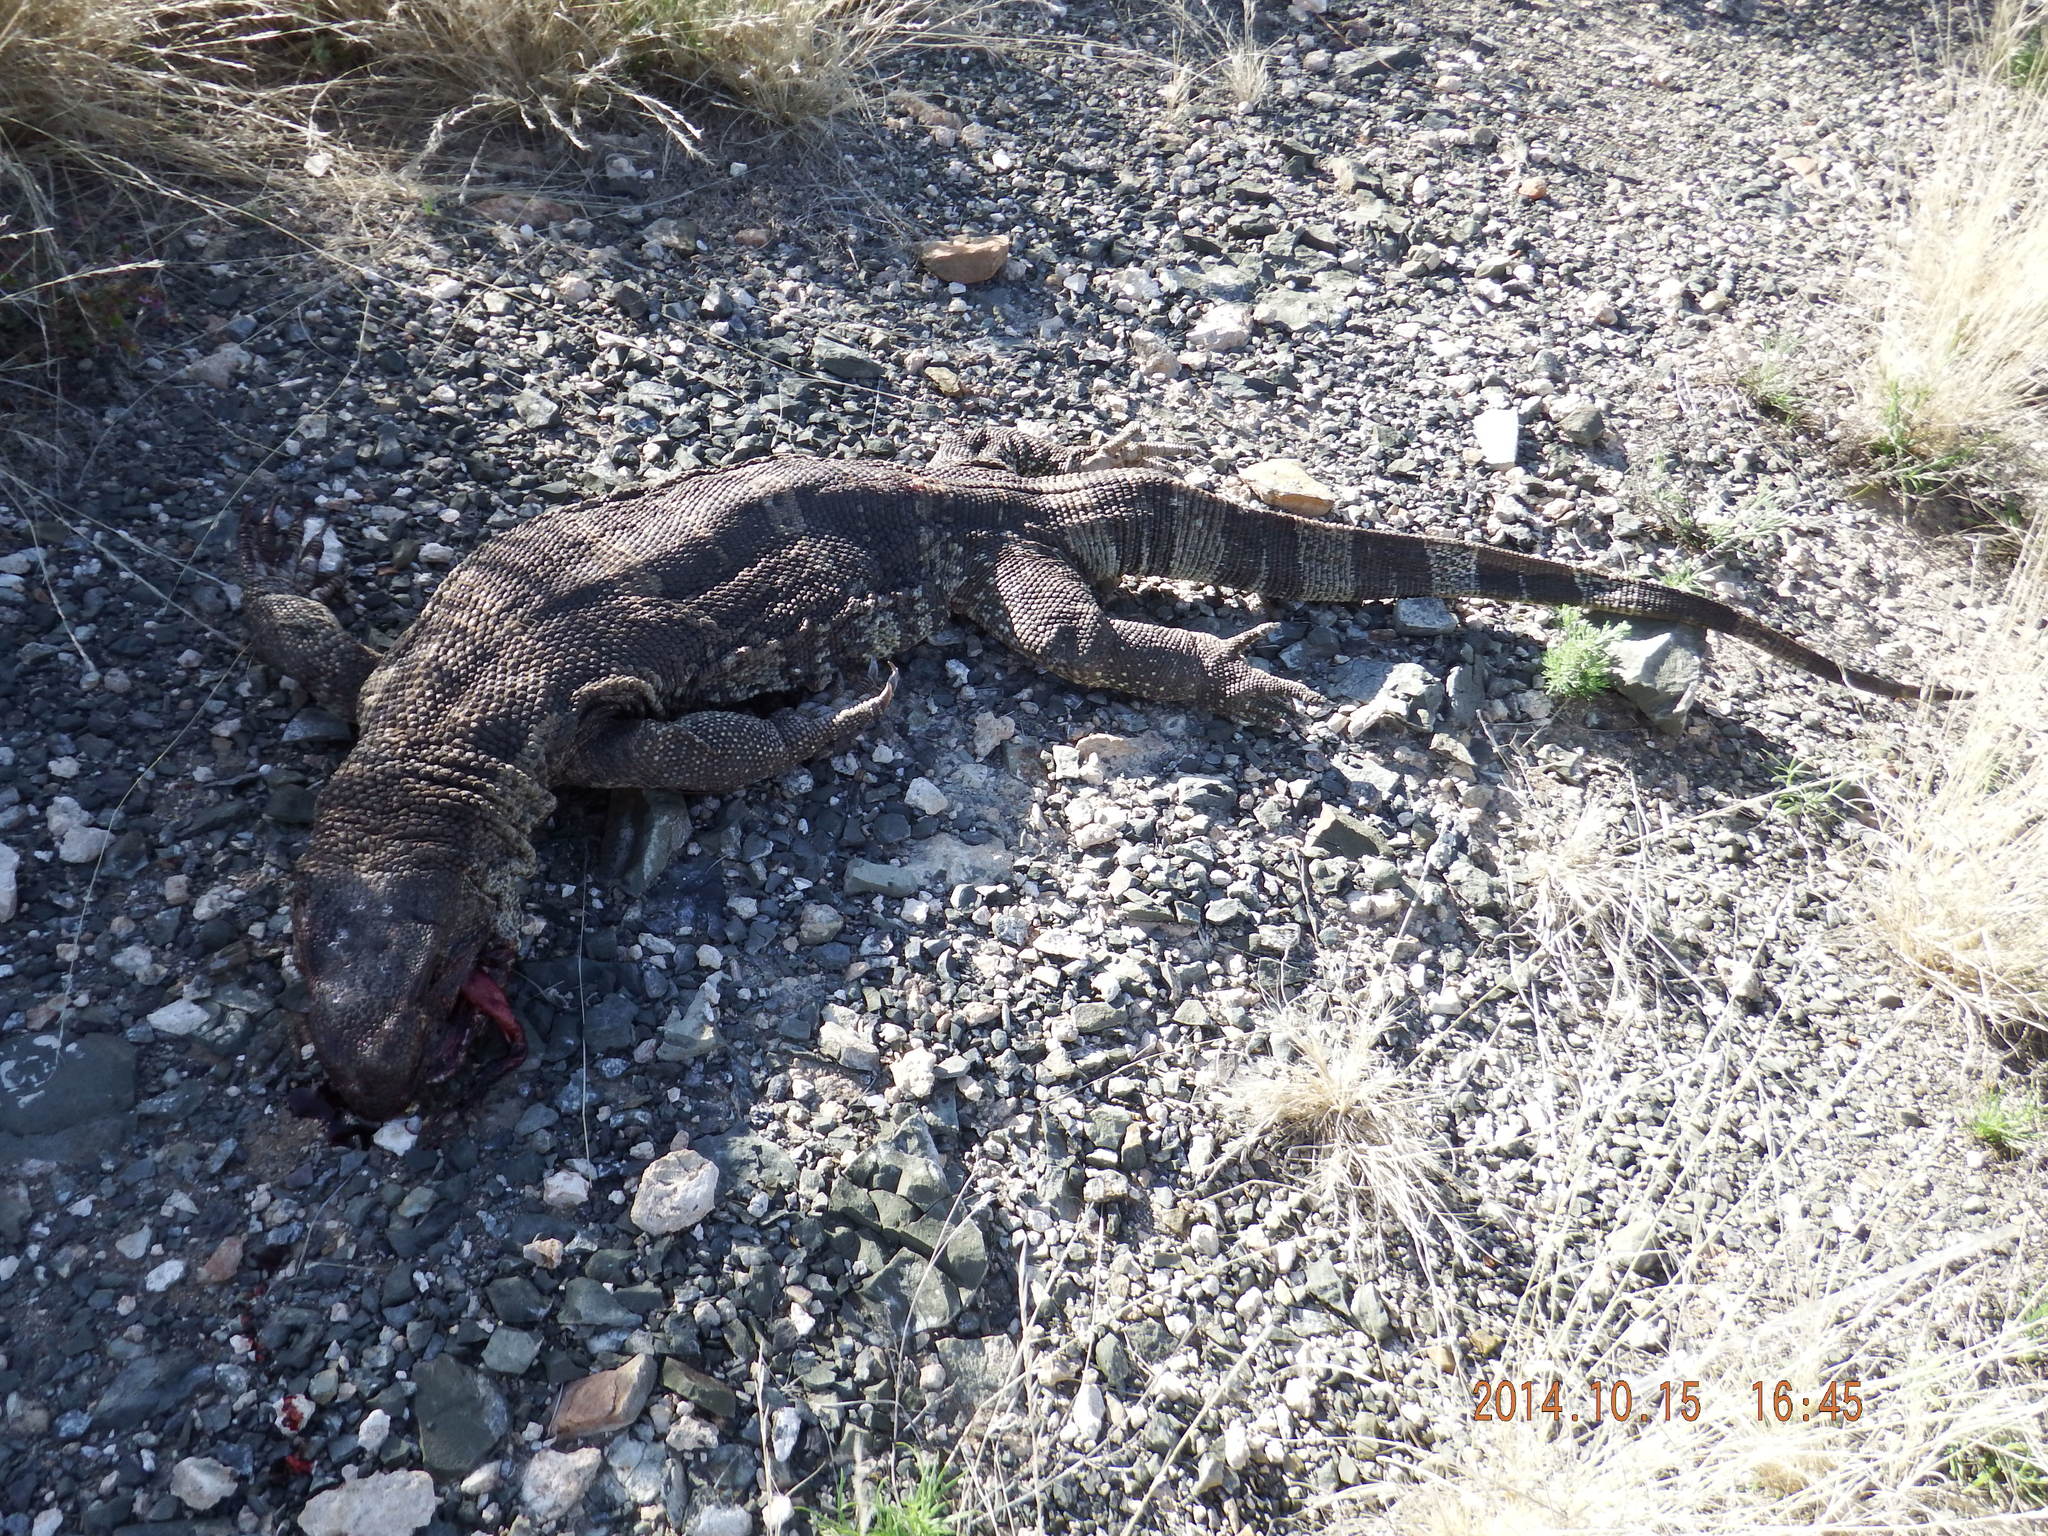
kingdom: Animalia
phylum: Chordata
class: Squamata
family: Varanidae
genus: Varanus
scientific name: Varanus albigularis
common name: White-throated monitor
